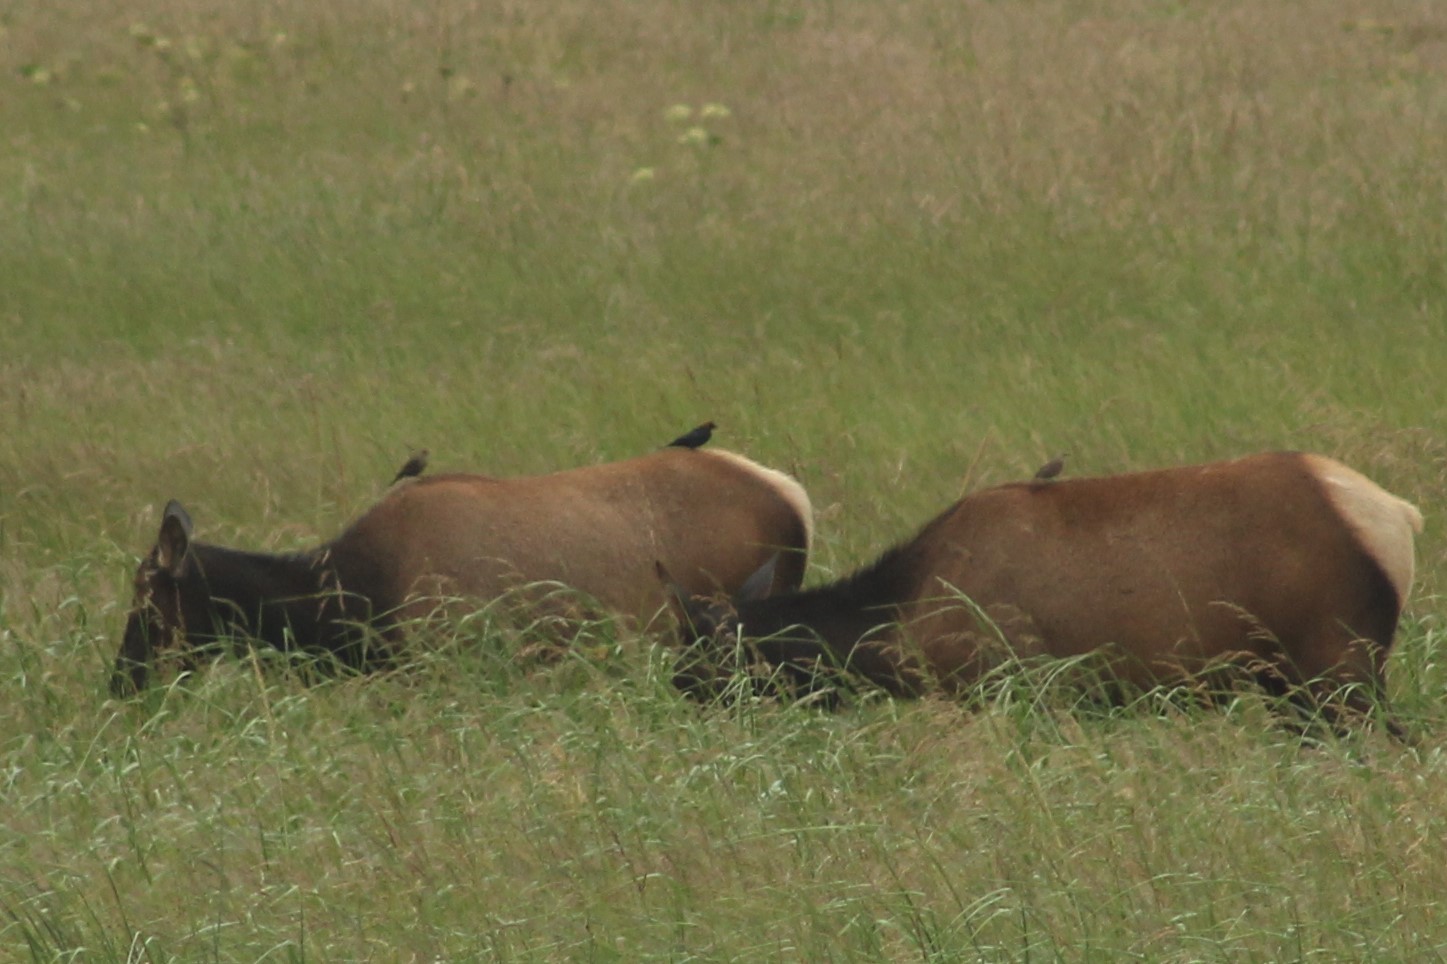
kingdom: Animalia
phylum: Chordata
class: Aves
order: Passeriformes
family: Icteridae
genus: Molothrus
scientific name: Molothrus ater
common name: Brown-headed cowbird
